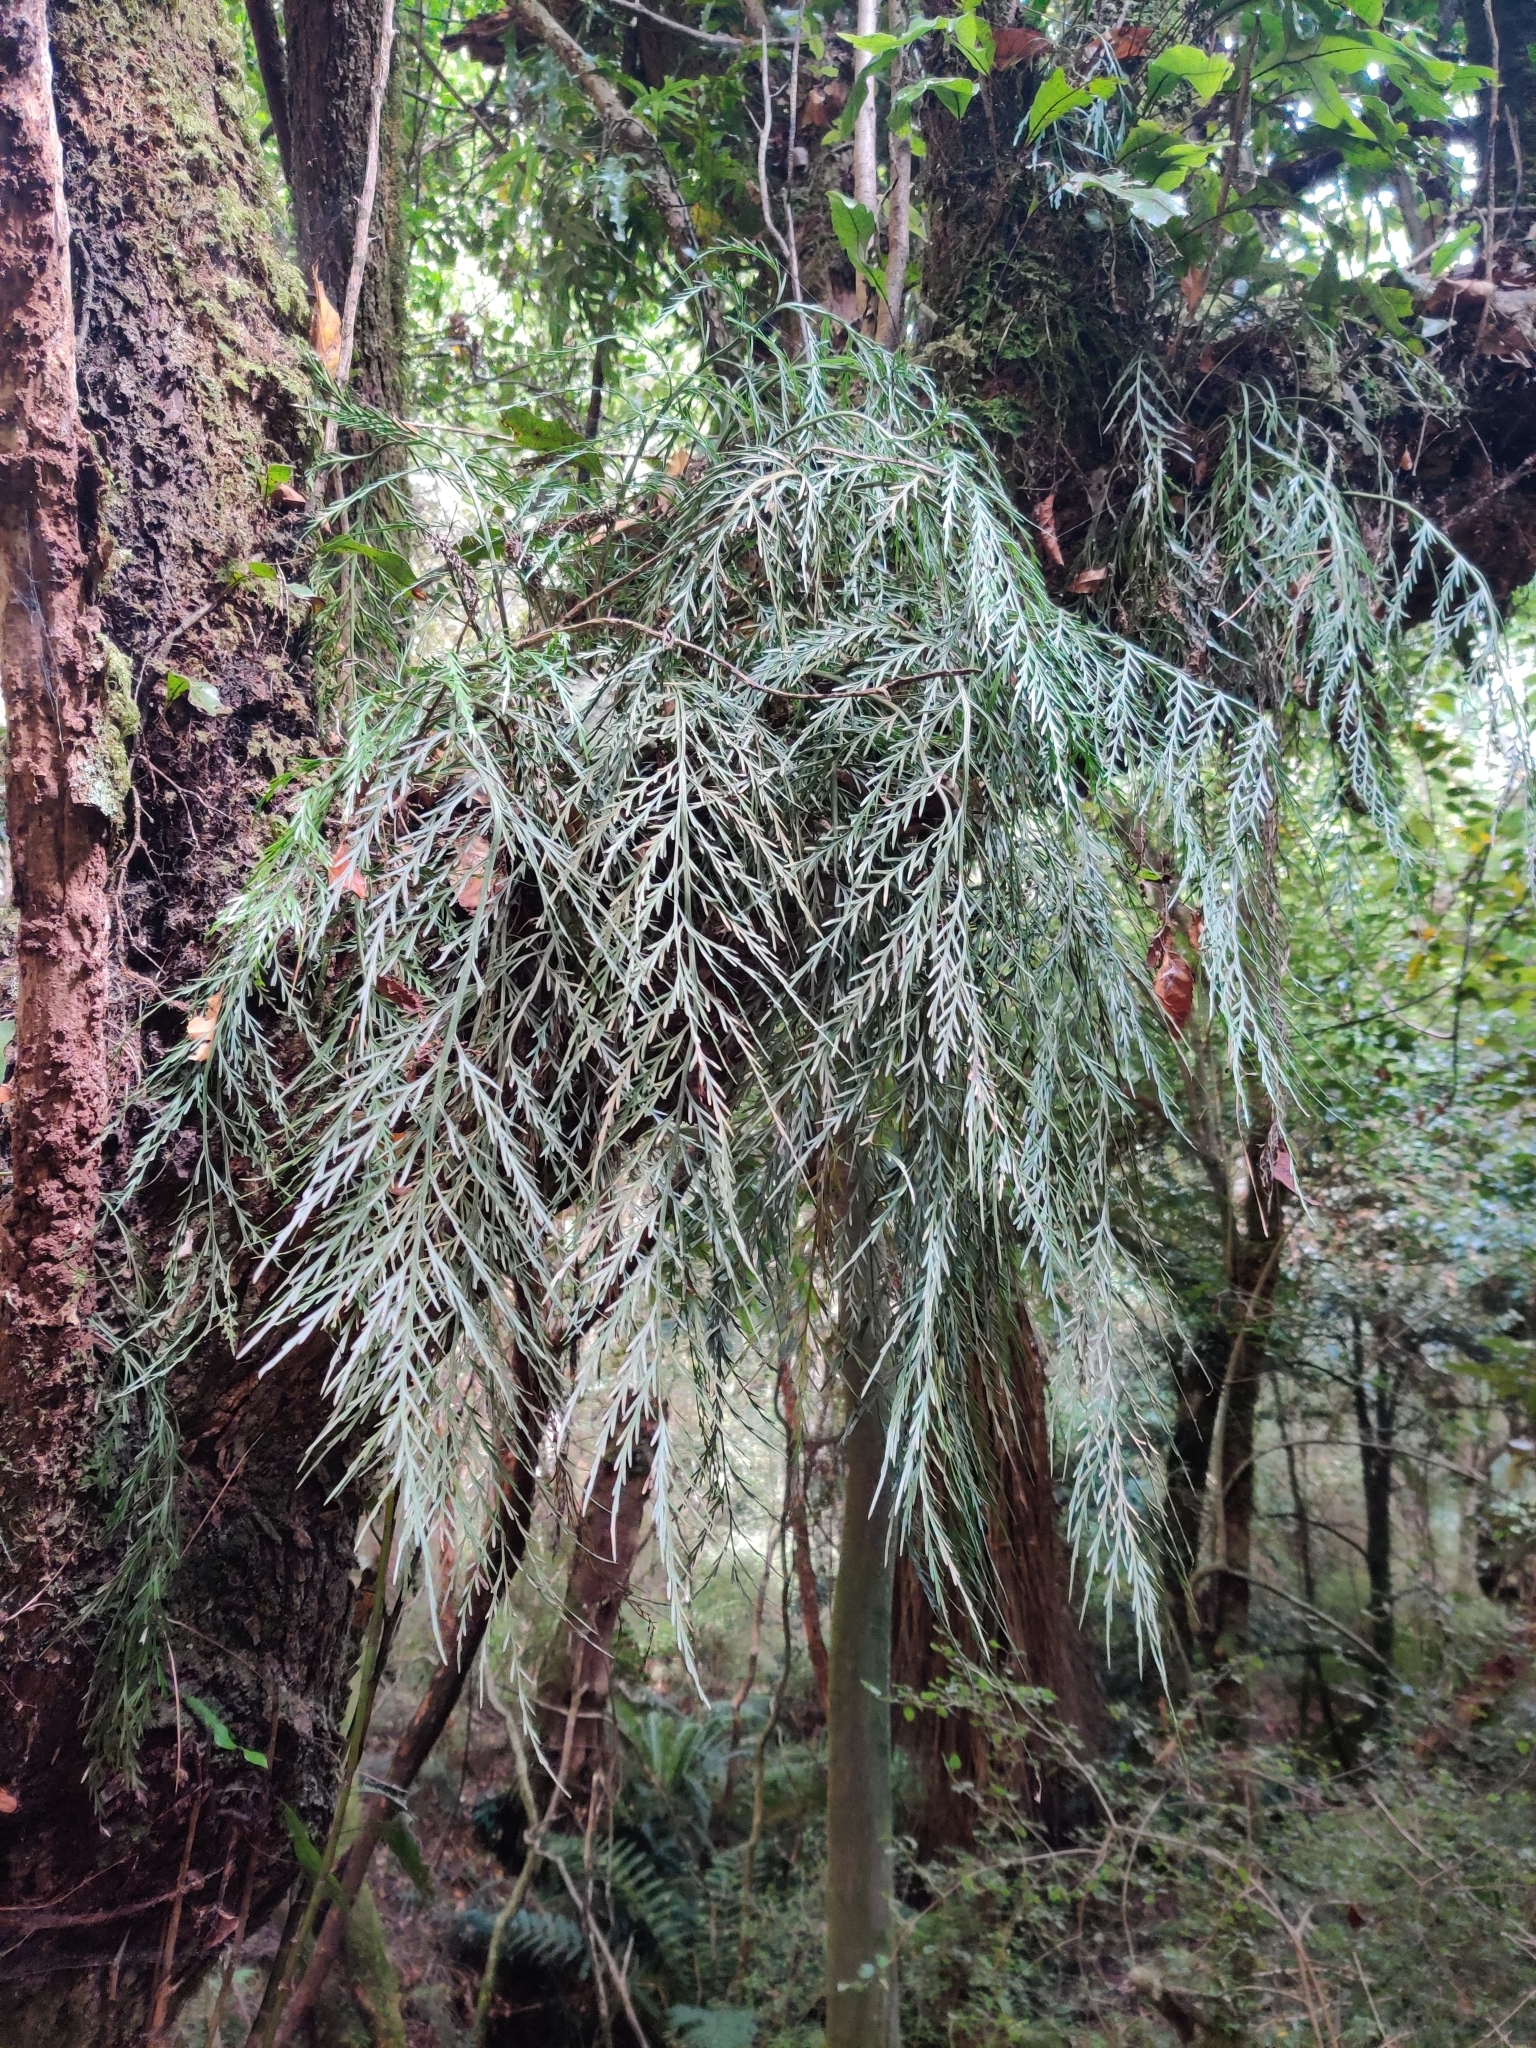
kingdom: Plantae
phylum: Tracheophyta
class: Polypodiopsida
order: Polypodiales
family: Aspleniaceae
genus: Asplenium
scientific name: Asplenium flaccidum
